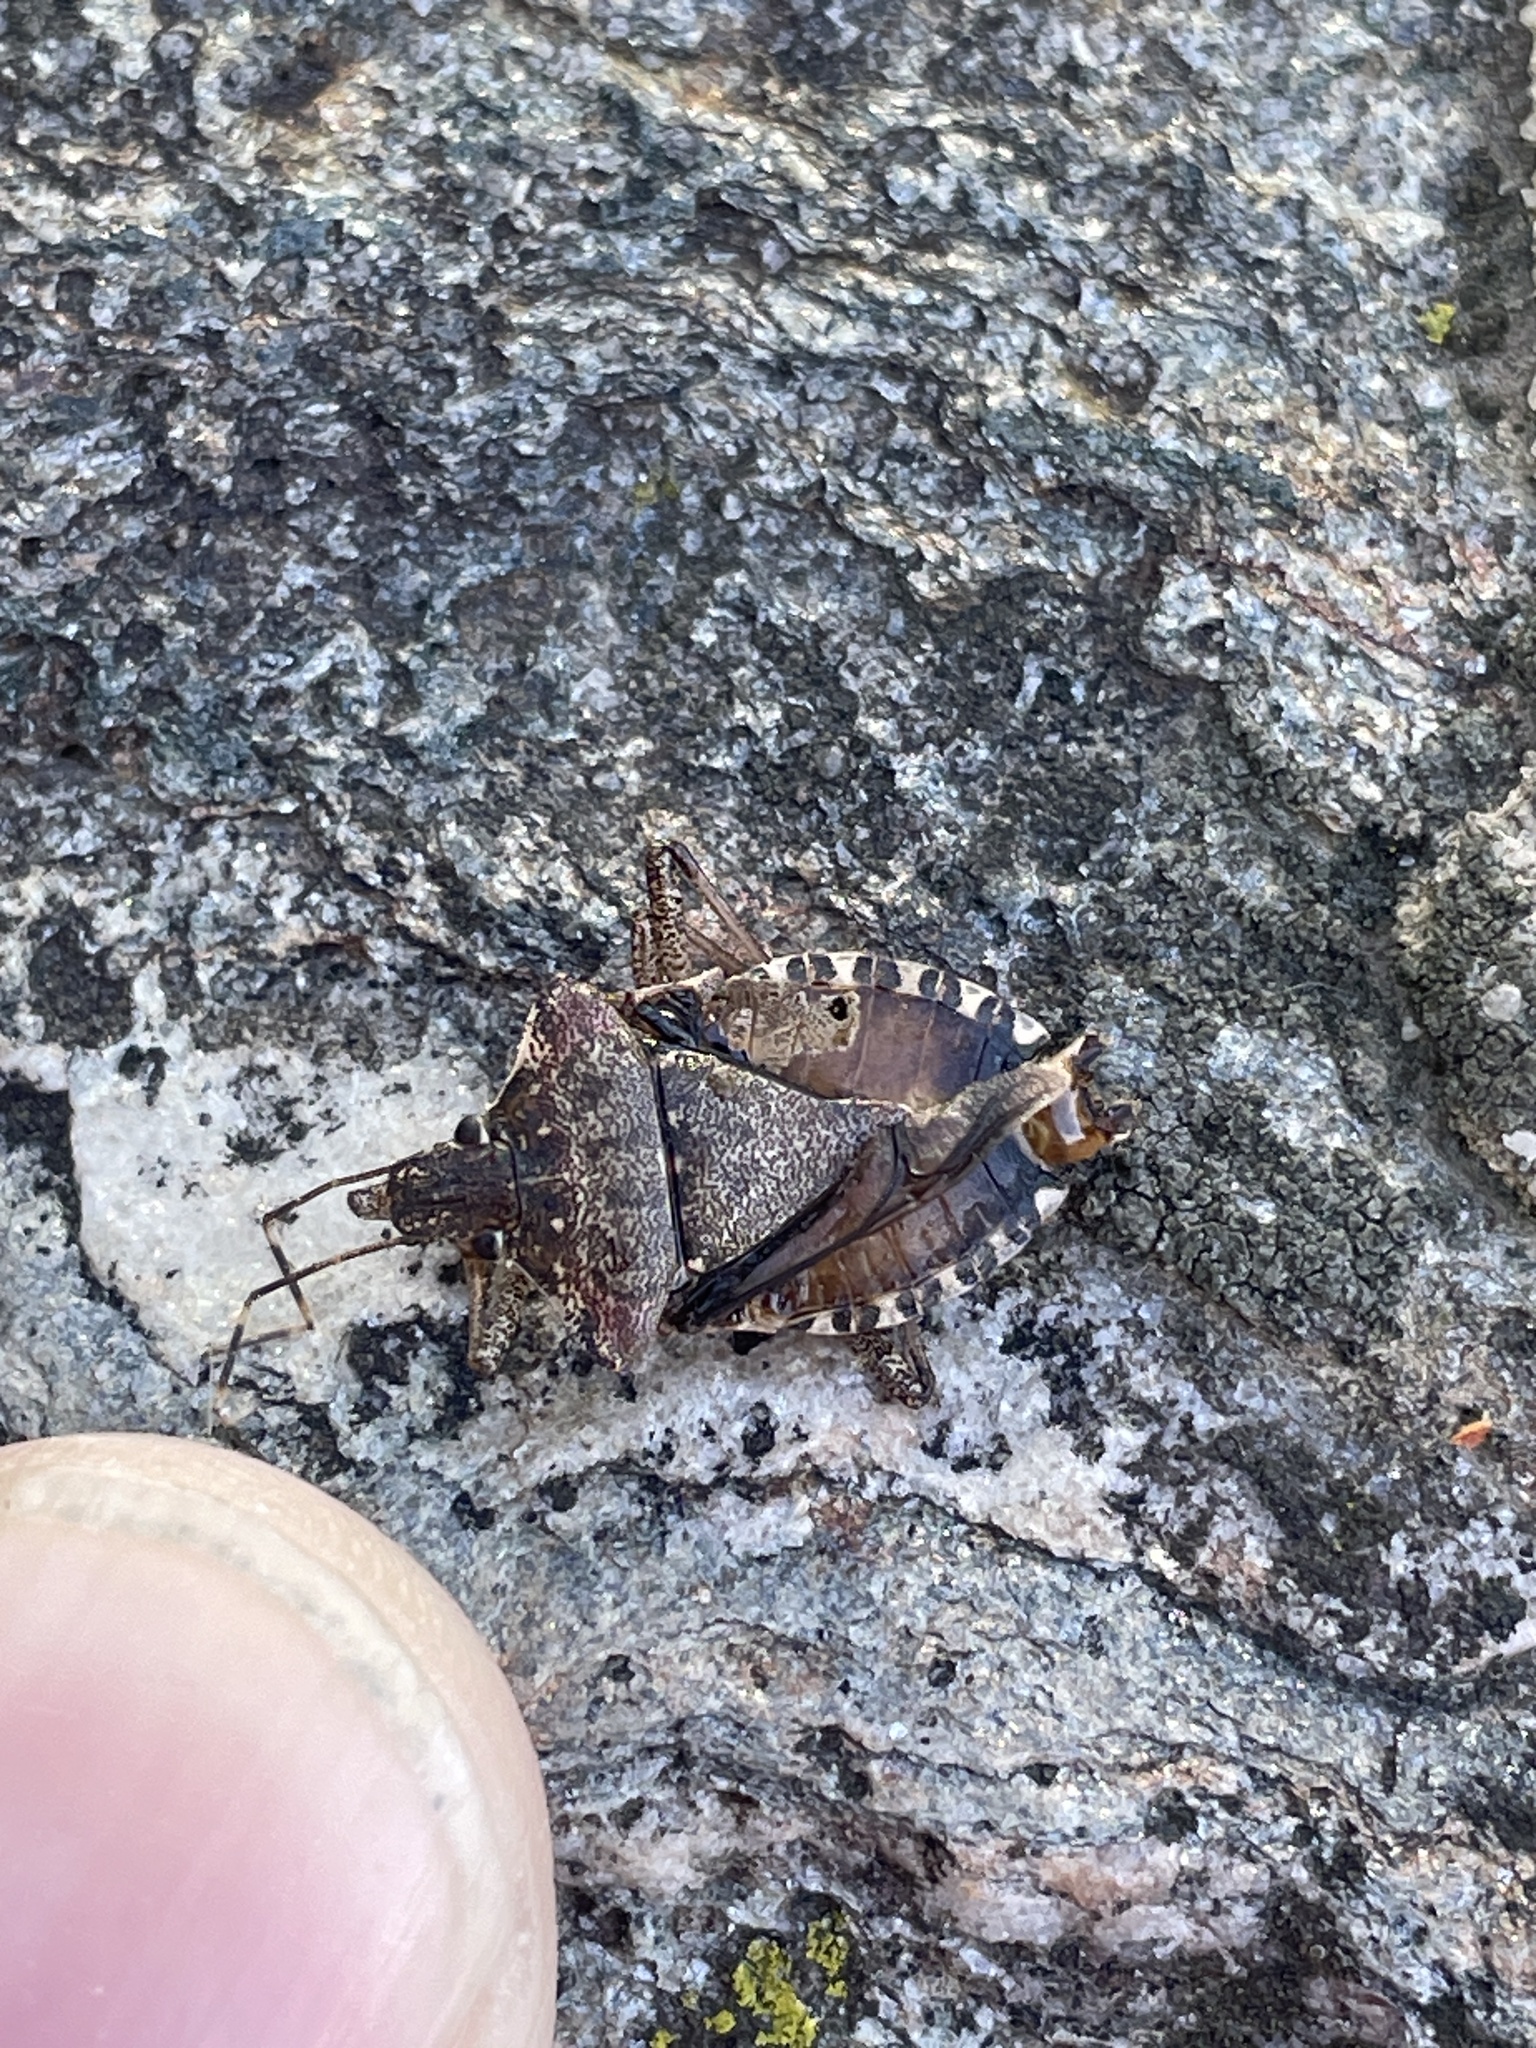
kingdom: Animalia
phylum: Arthropoda
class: Insecta
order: Hemiptera
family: Pentatomidae
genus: Halyomorpha
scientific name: Halyomorpha halys
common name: Brown marmorated stink bug
